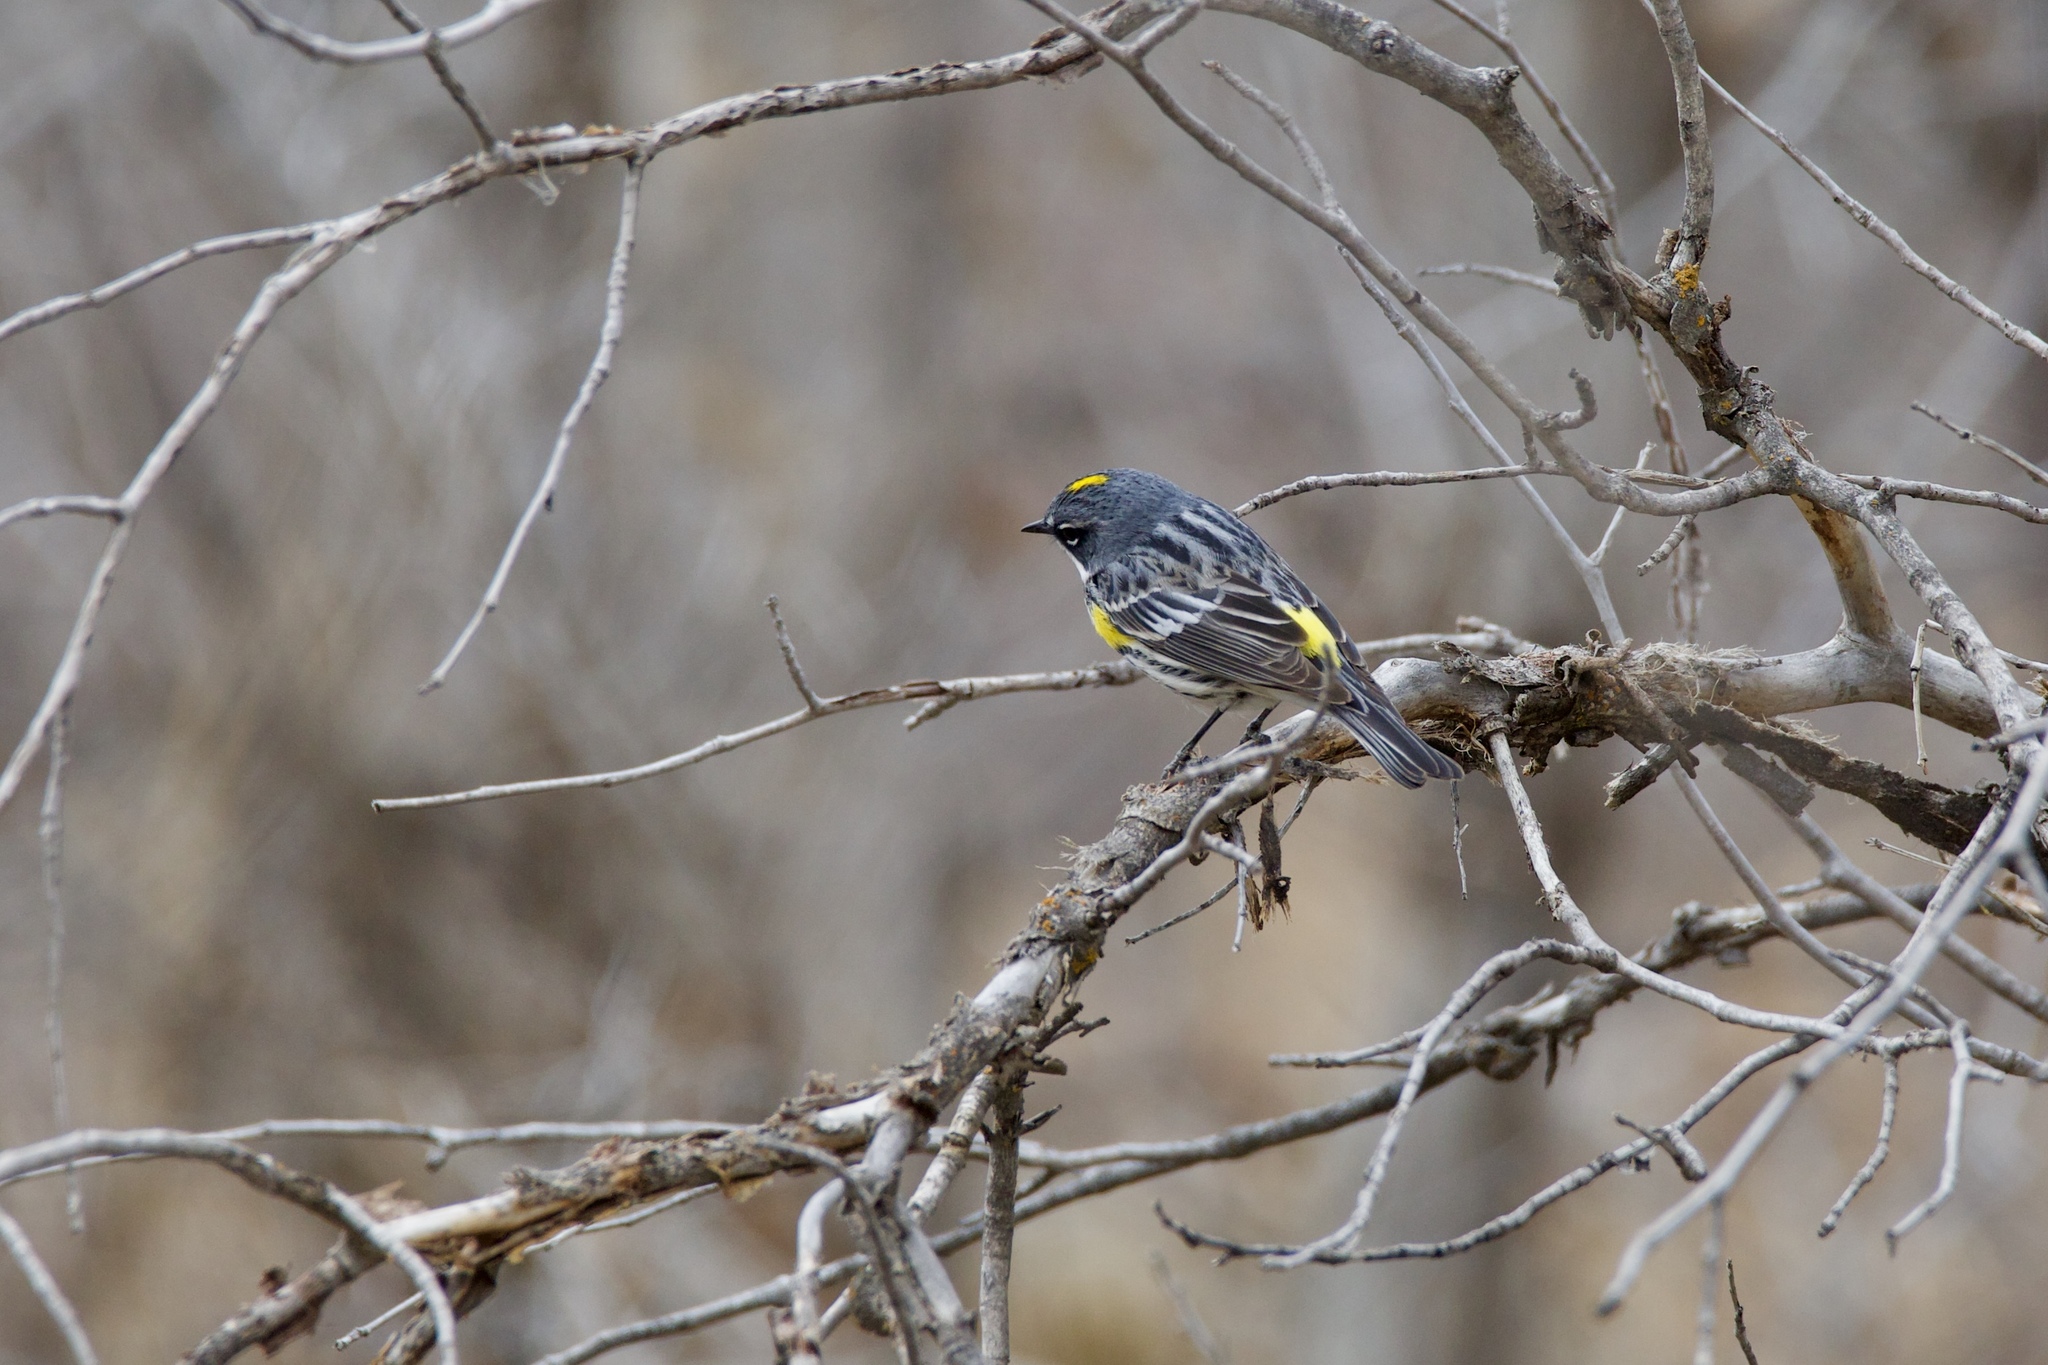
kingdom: Animalia
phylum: Chordata
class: Aves
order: Passeriformes
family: Parulidae
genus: Setophaga
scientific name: Setophaga coronata
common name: Myrtle warbler
